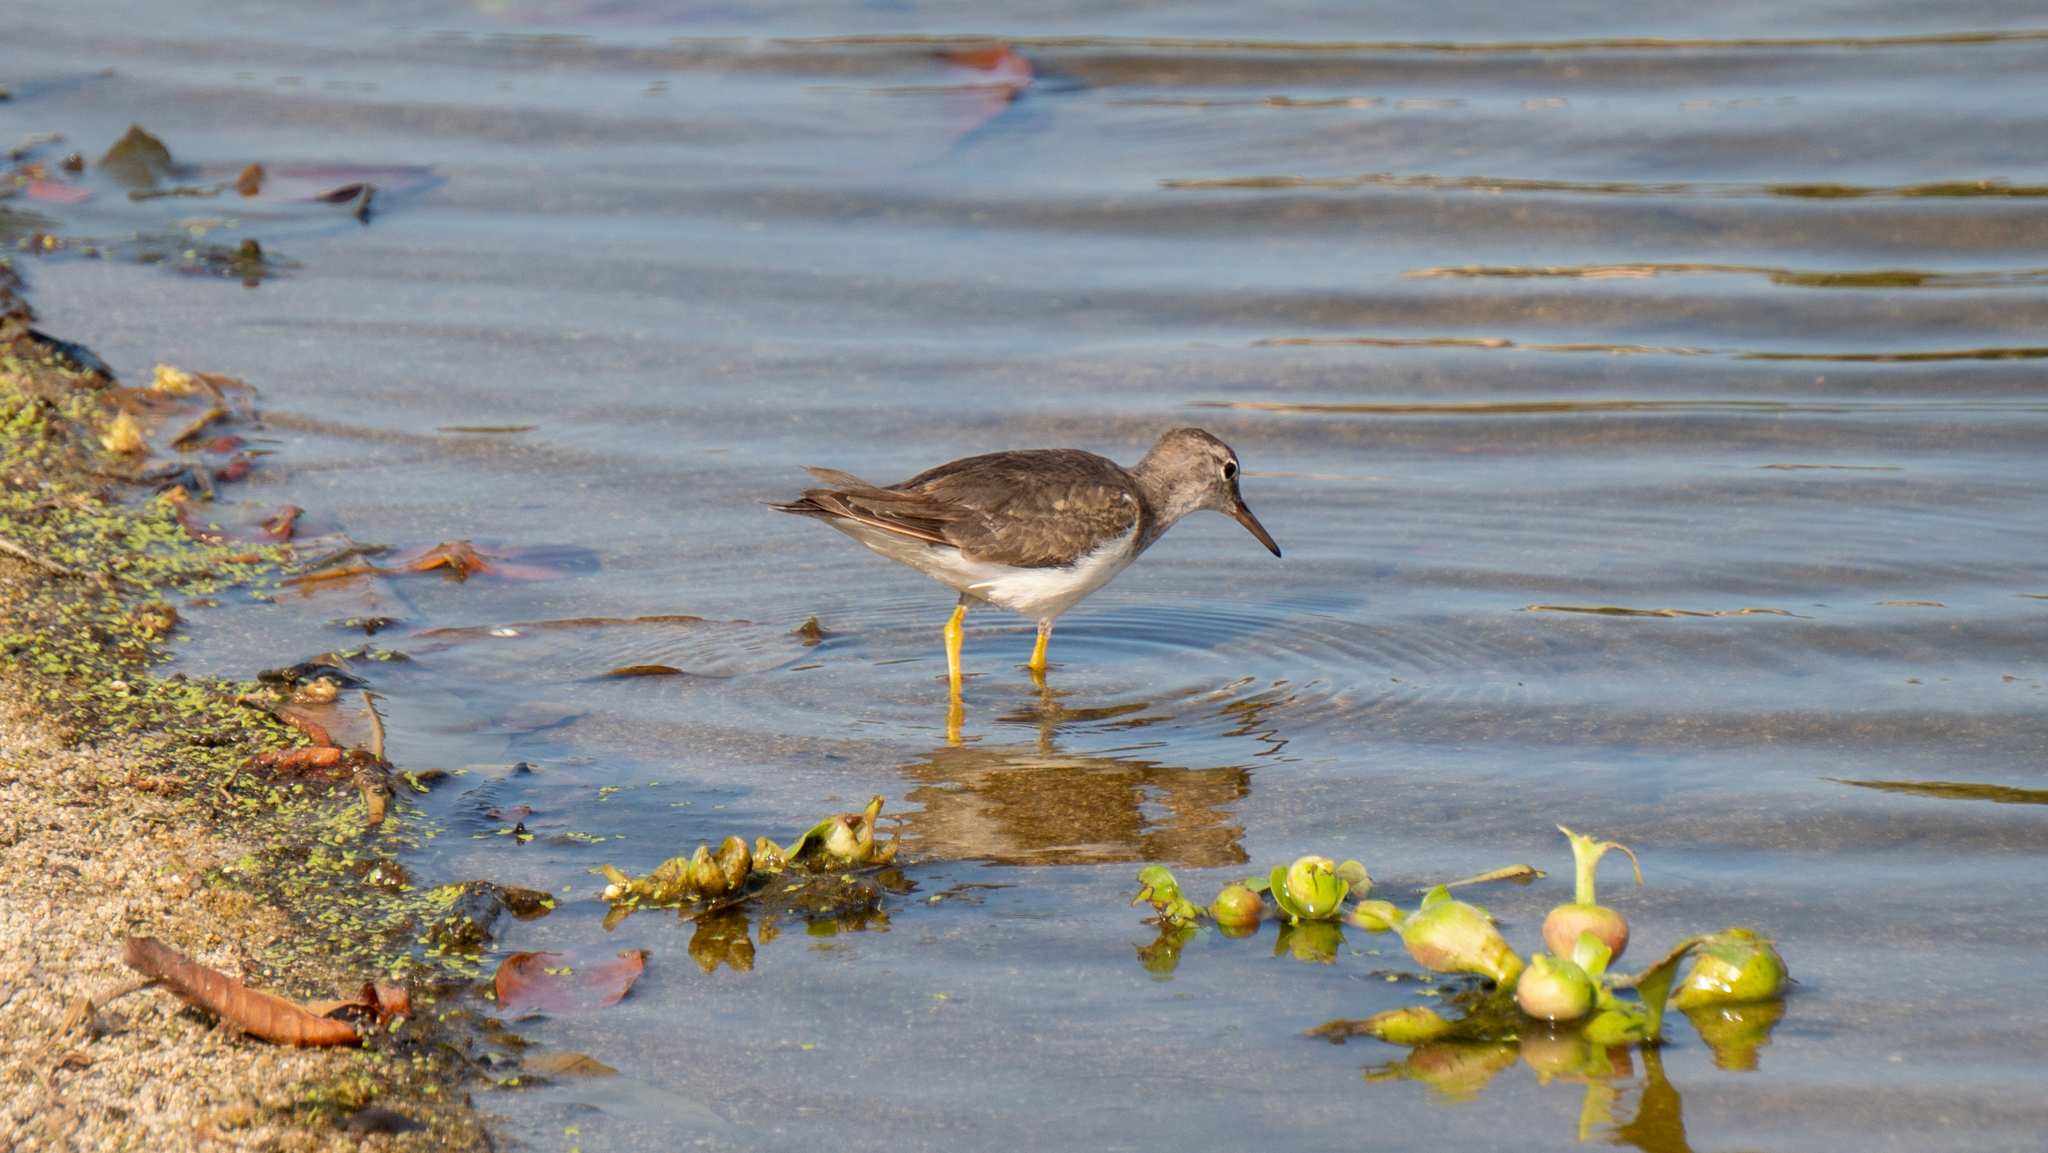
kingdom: Animalia
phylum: Chordata
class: Aves
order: Charadriiformes
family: Scolopacidae
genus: Actitis
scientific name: Actitis macularius
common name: Spotted sandpiper
